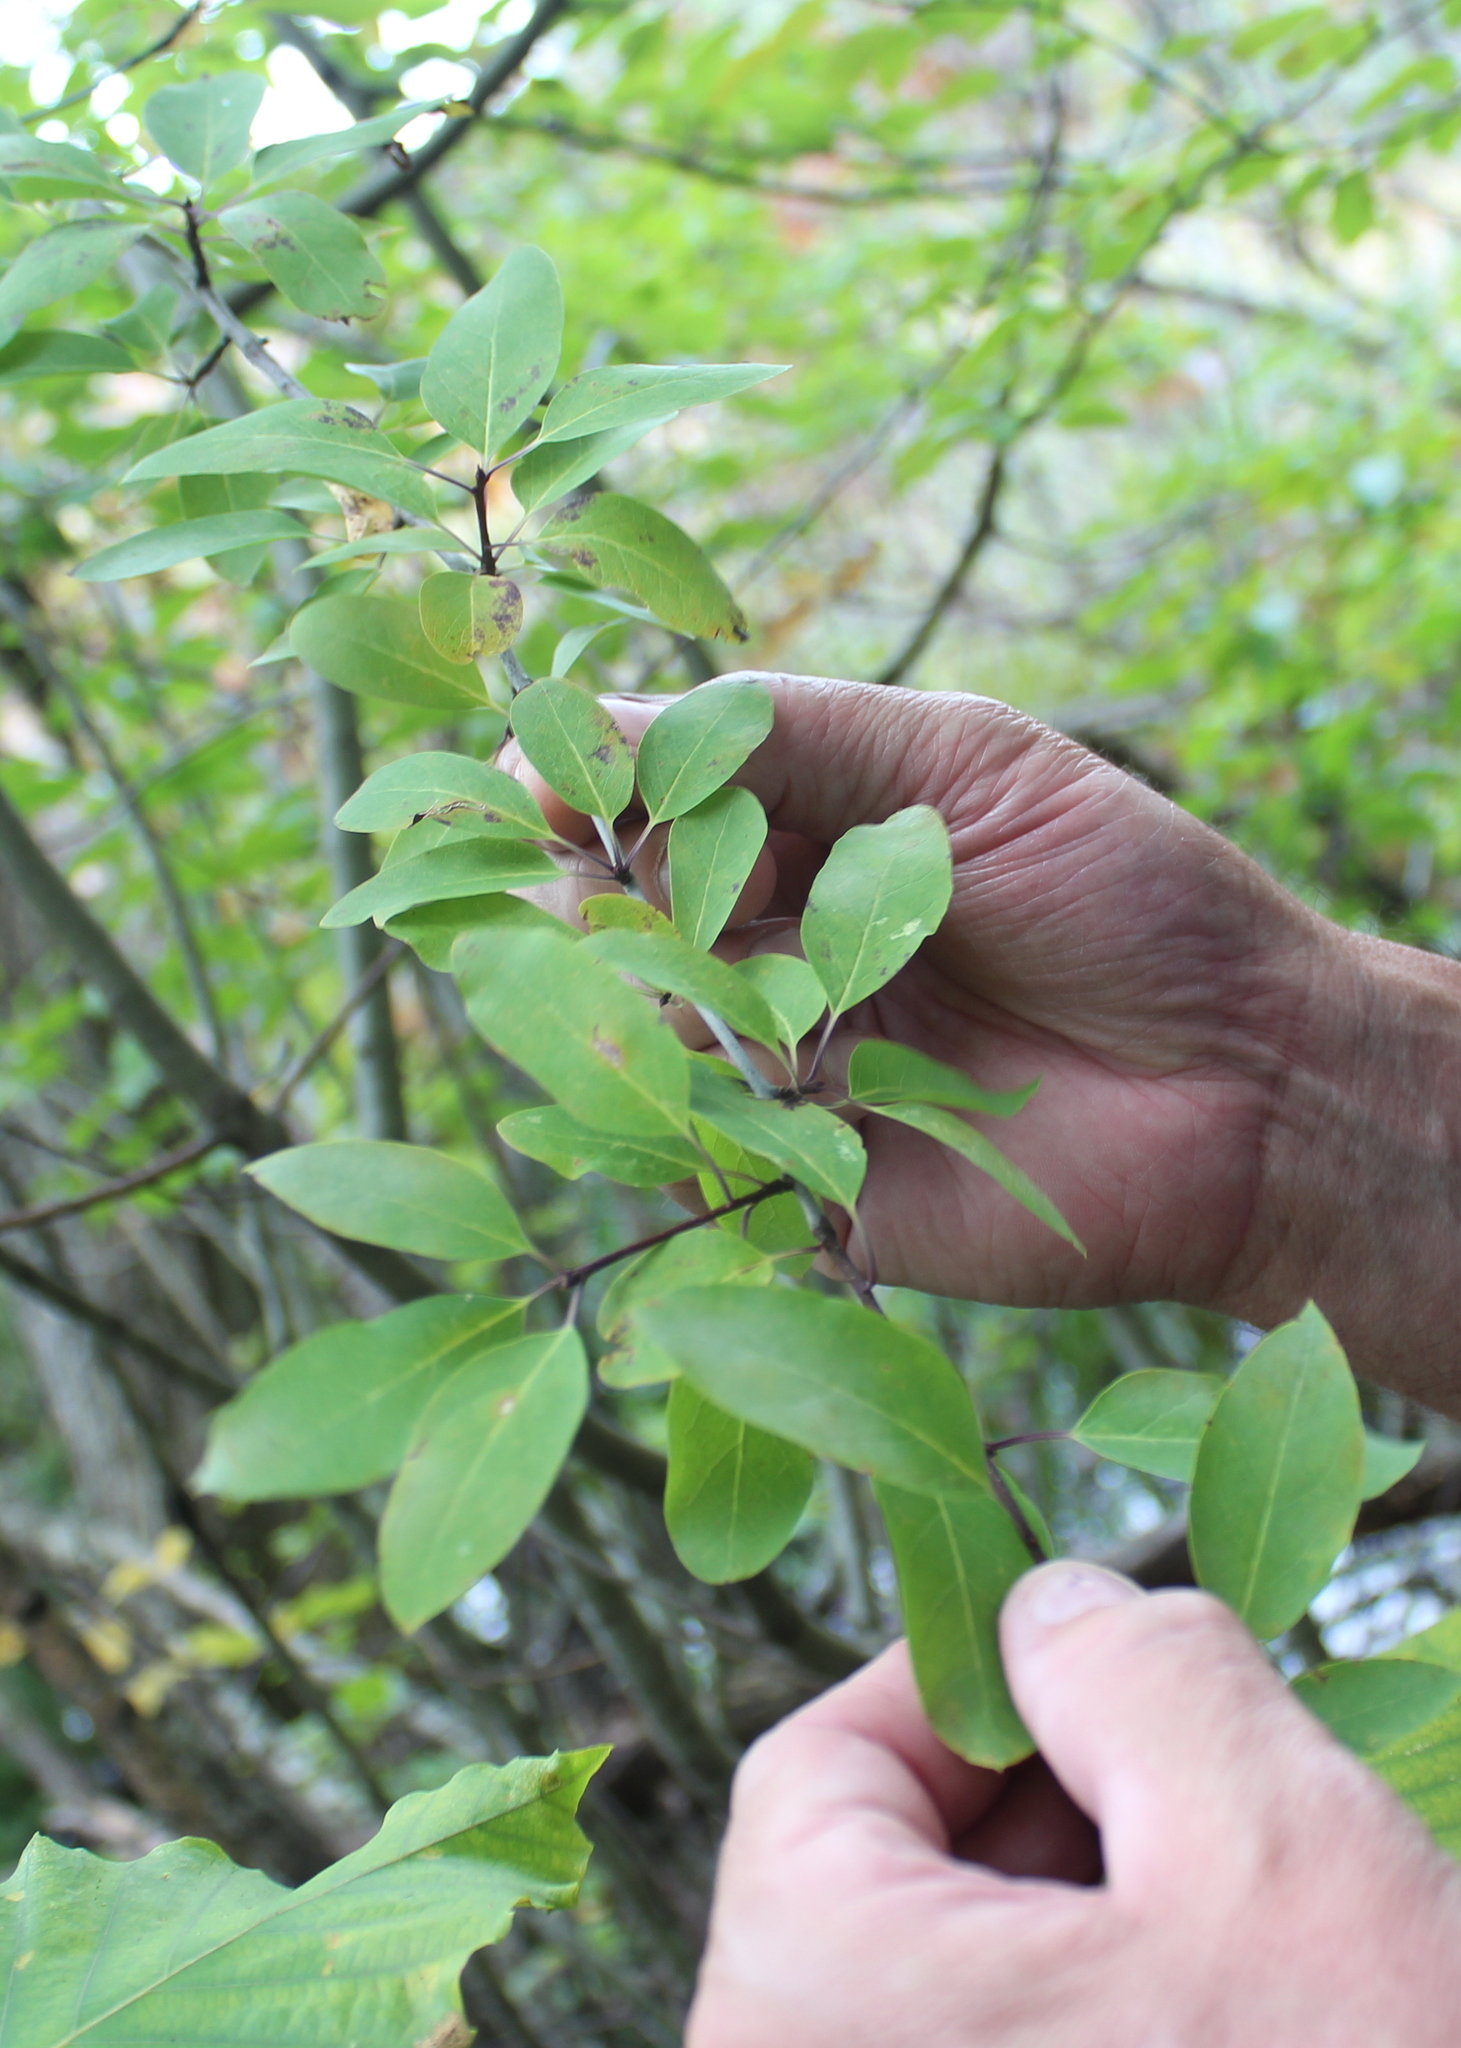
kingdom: Plantae
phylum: Tracheophyta
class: Magnoliopsida
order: Aquifoliales
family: Aquifoliaceae
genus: Ilex
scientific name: Ilex mucronata
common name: Catberry
